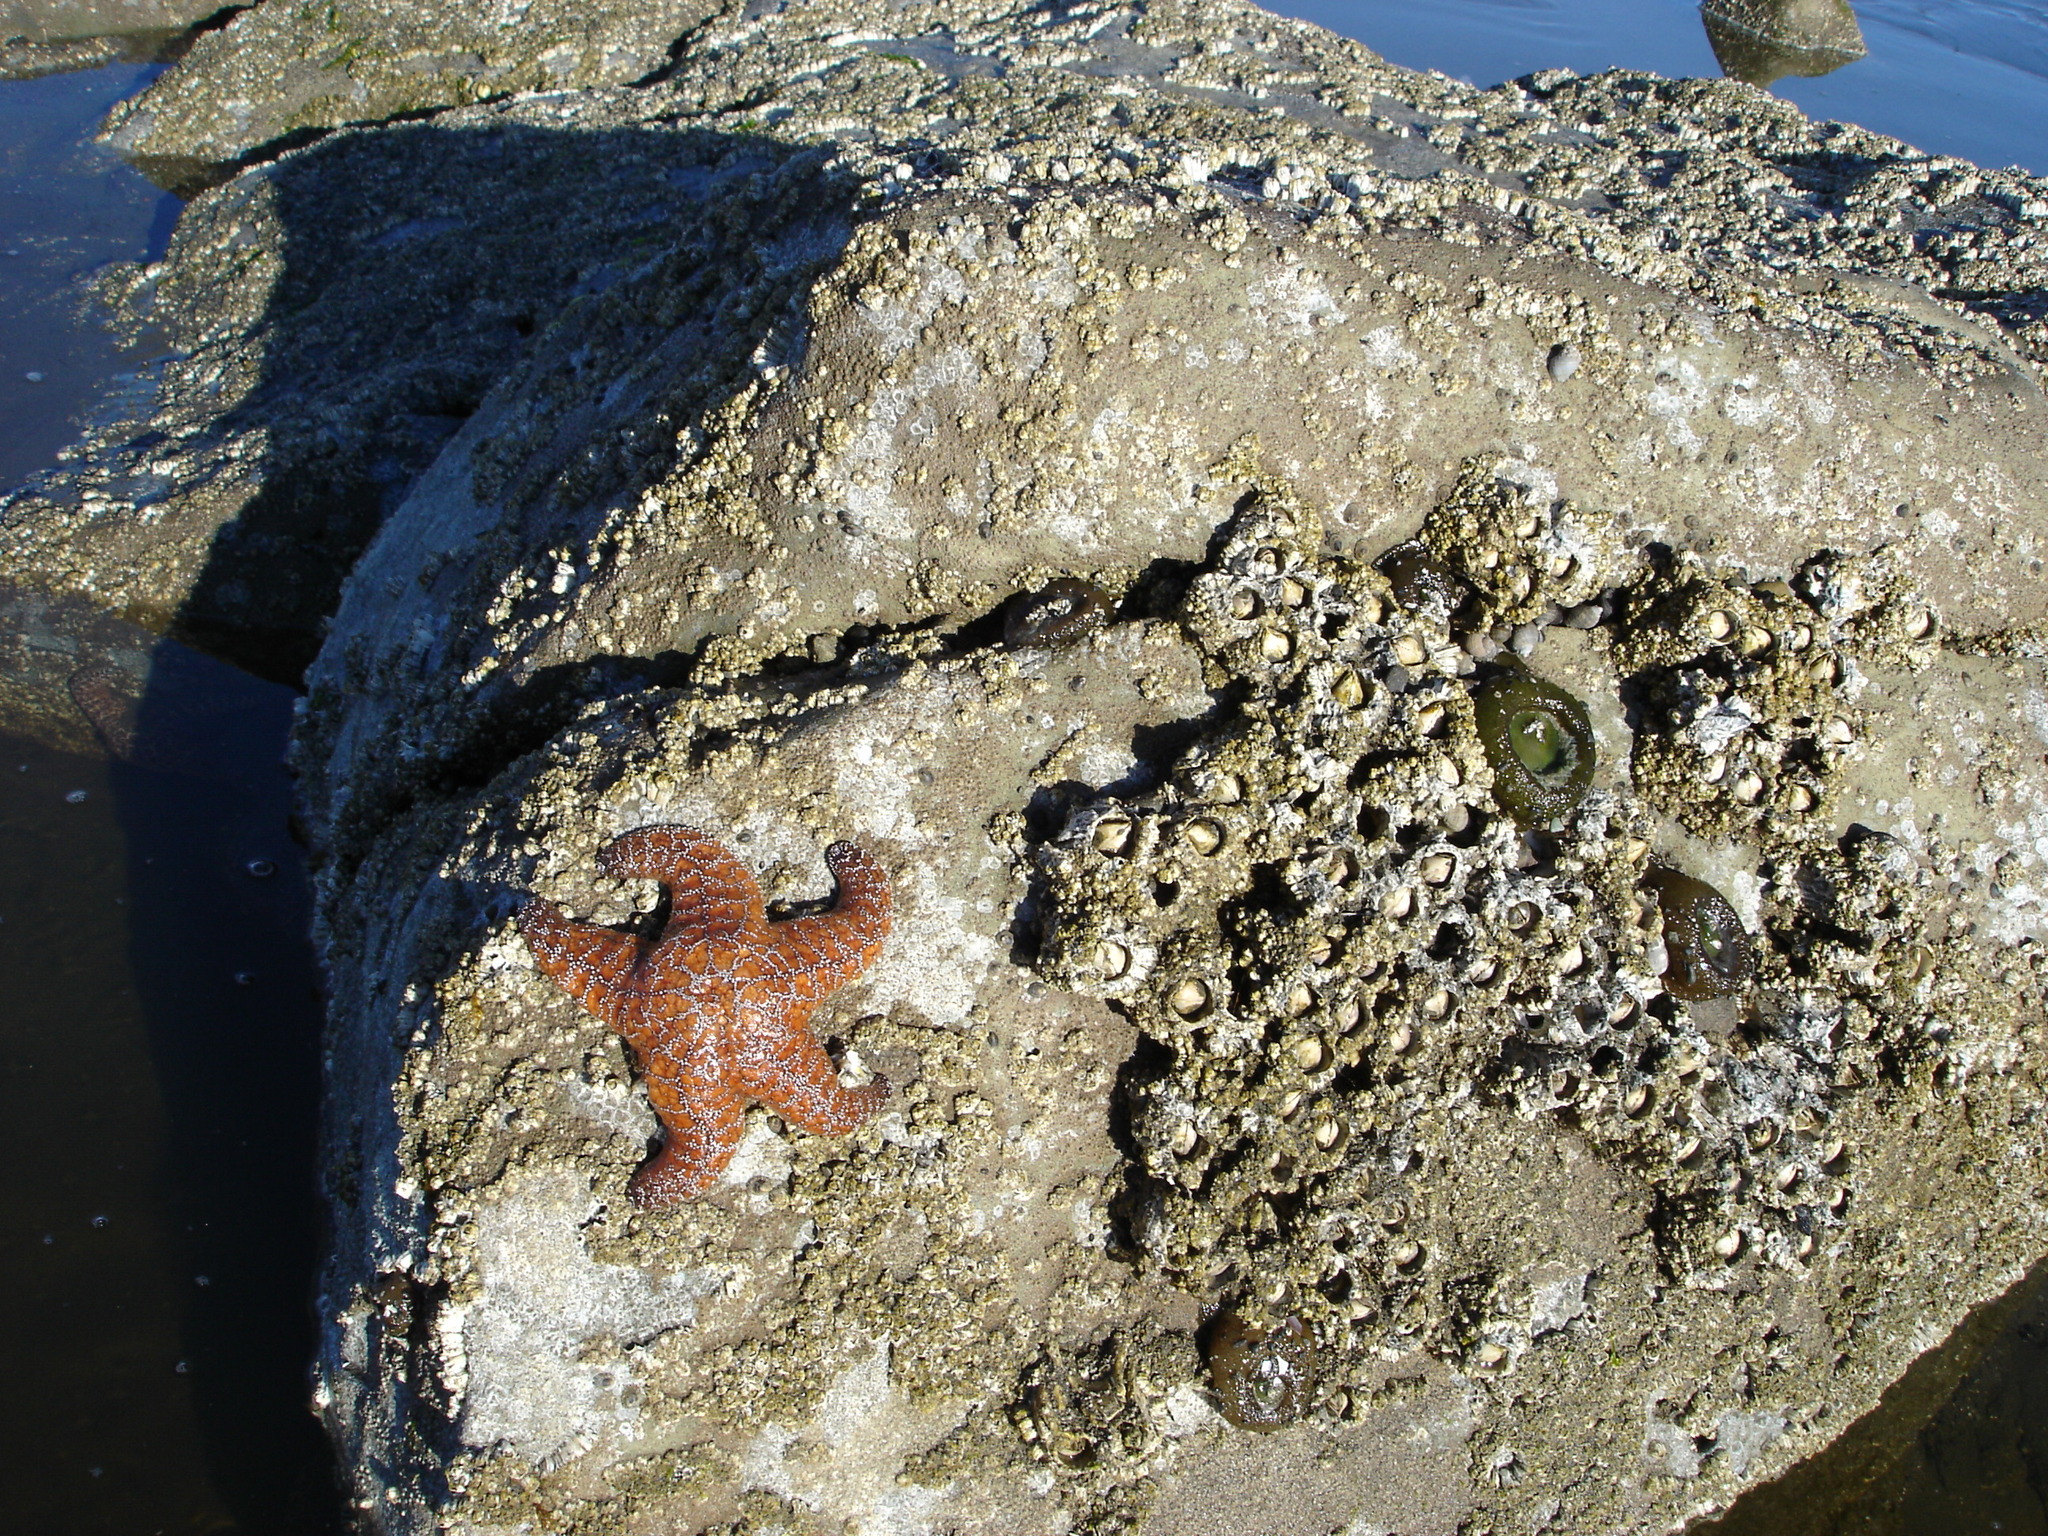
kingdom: Animalia
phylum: Echinodermata
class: Asteroidea
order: Forcipulatida
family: Asteriidae
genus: Pisaster
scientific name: Pisaster ochraceus
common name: Ochre stars
